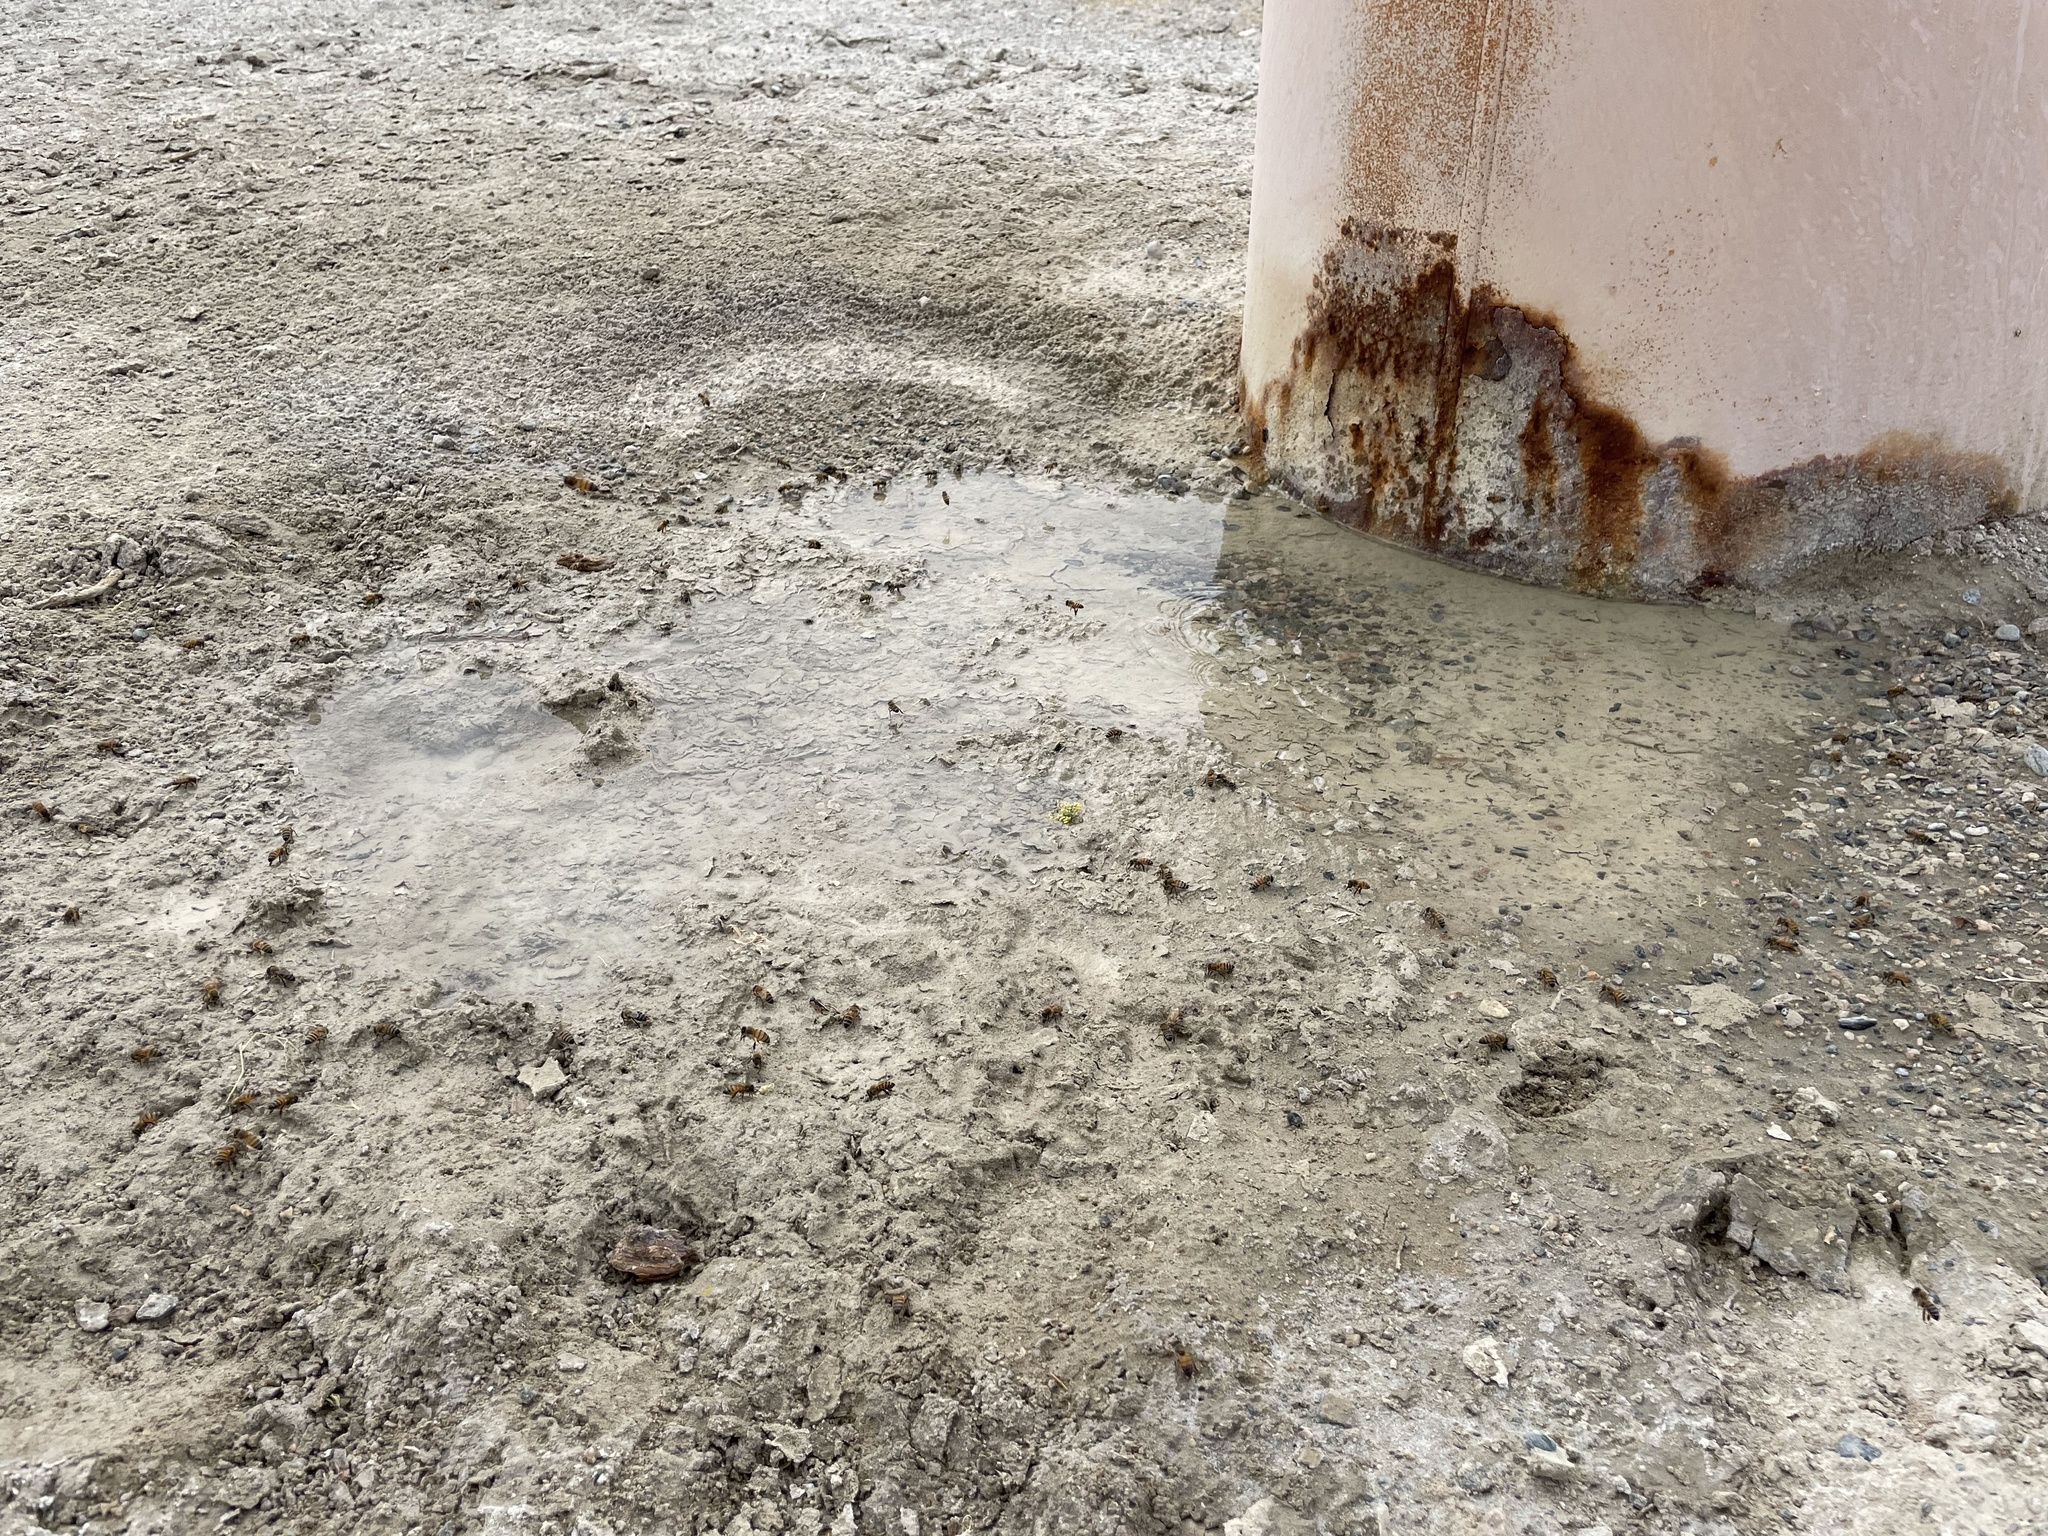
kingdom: Animalia
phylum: Arthropoda
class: Insecta
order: Hymenoptera
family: Apidae
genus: Apis
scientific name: Apis mellifera
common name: Honey bee
